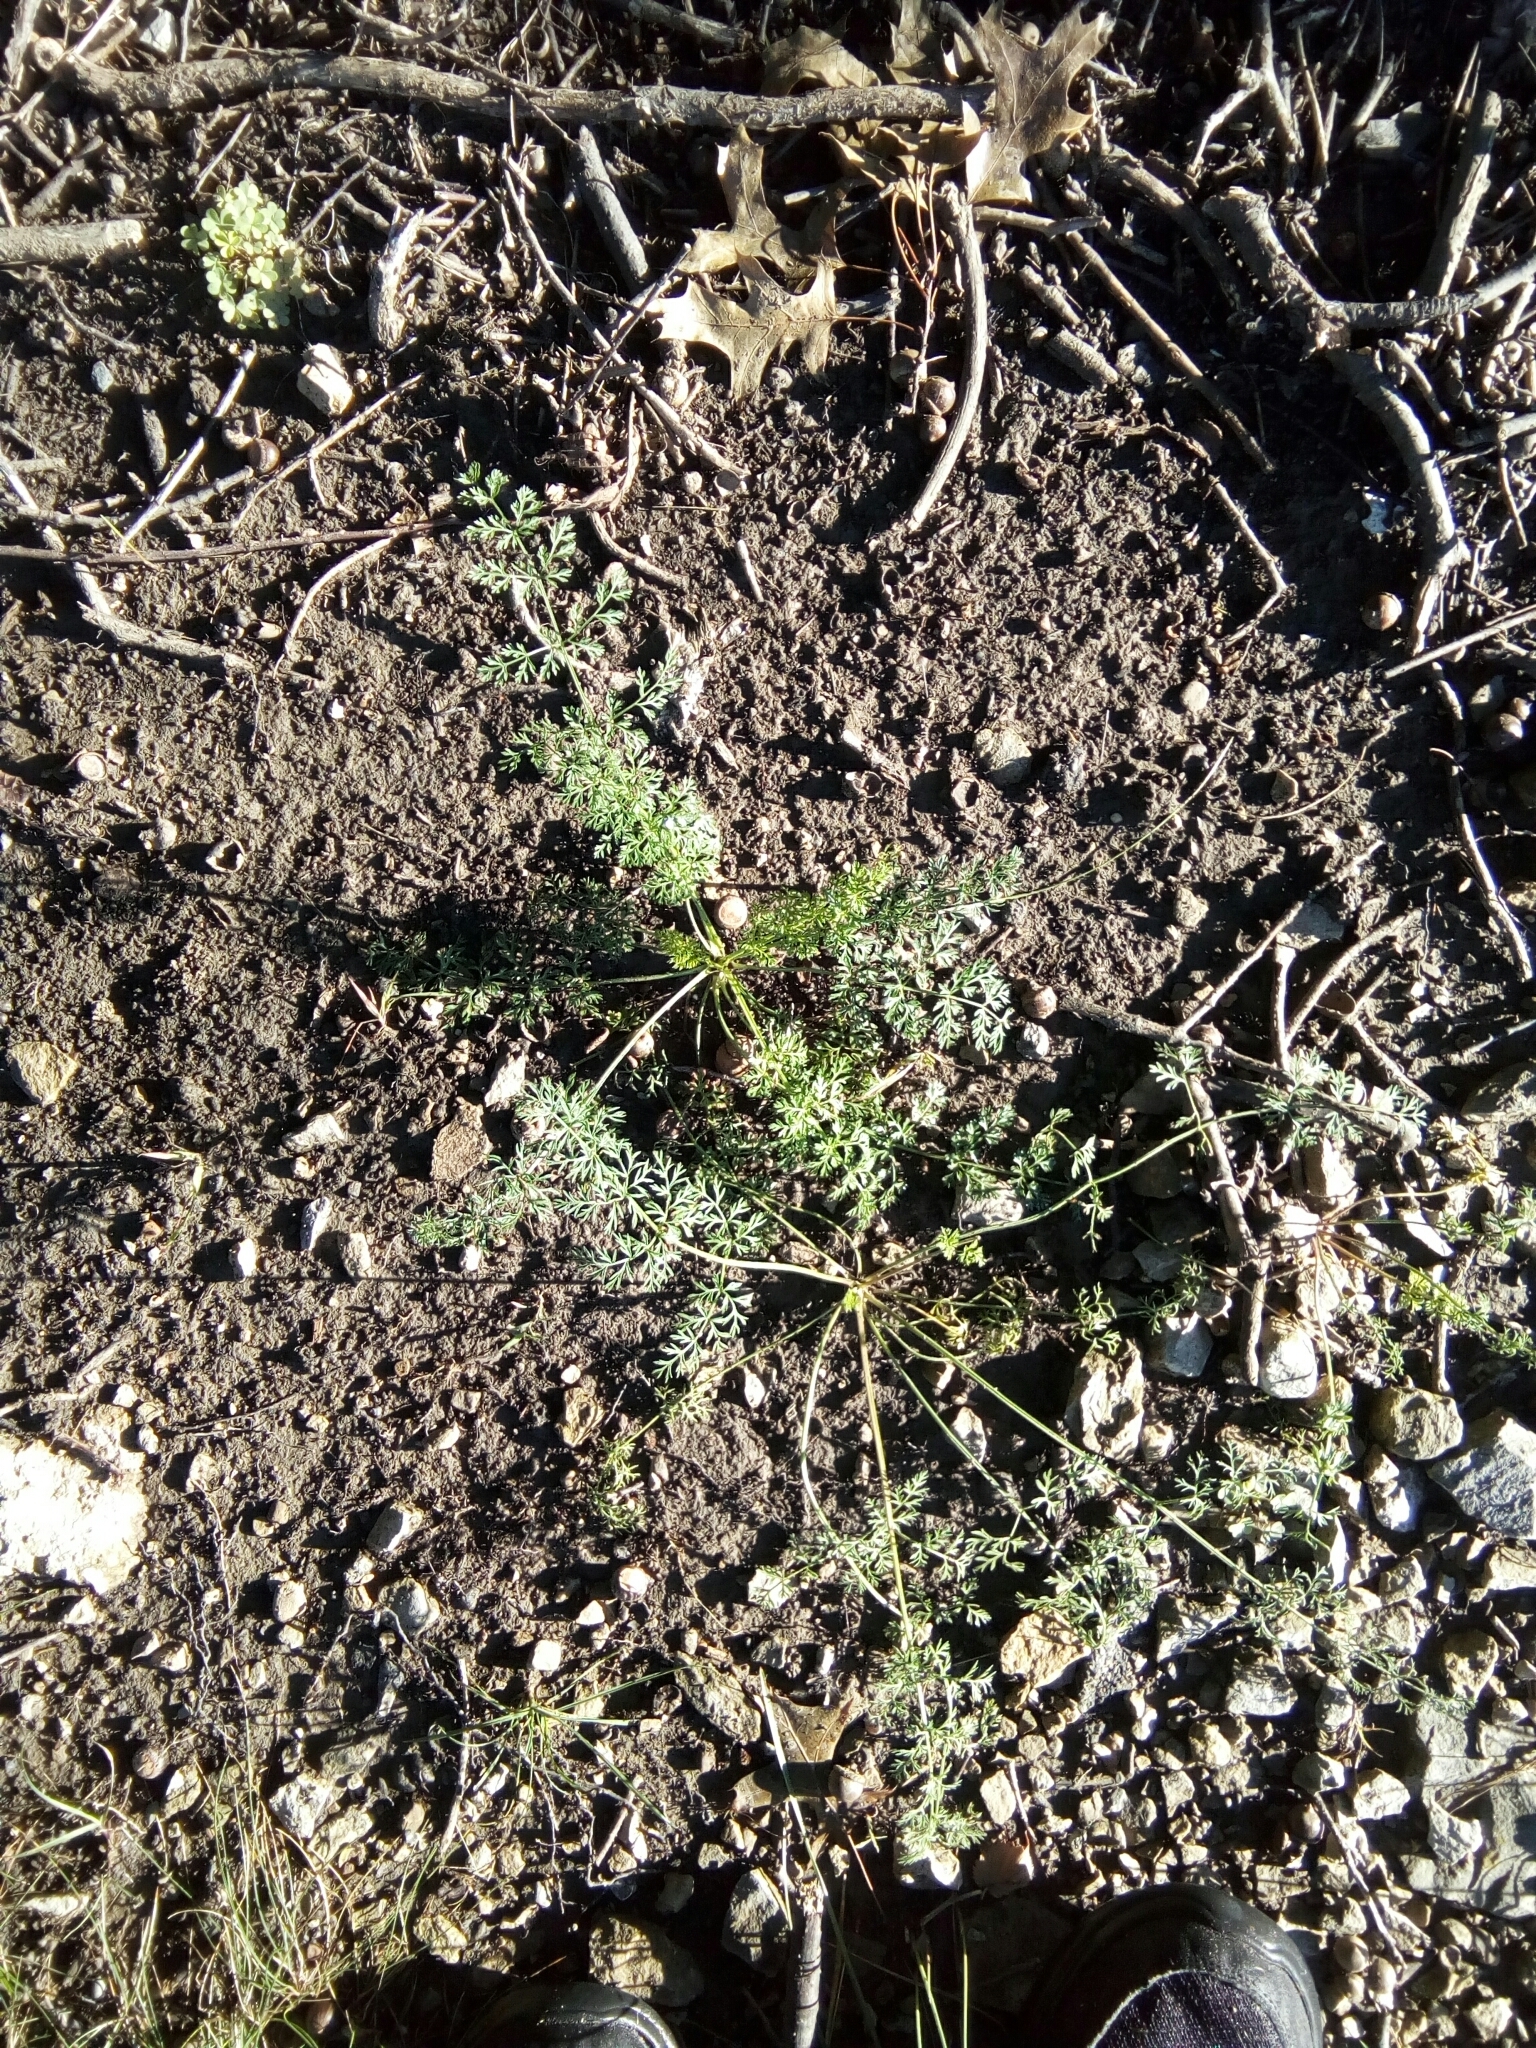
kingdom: Plantae
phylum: Tracheophyta
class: Magnoliopsida
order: Apiales
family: Apiaceae
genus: Daucus
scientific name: Daucus carota
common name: Wild carrot
